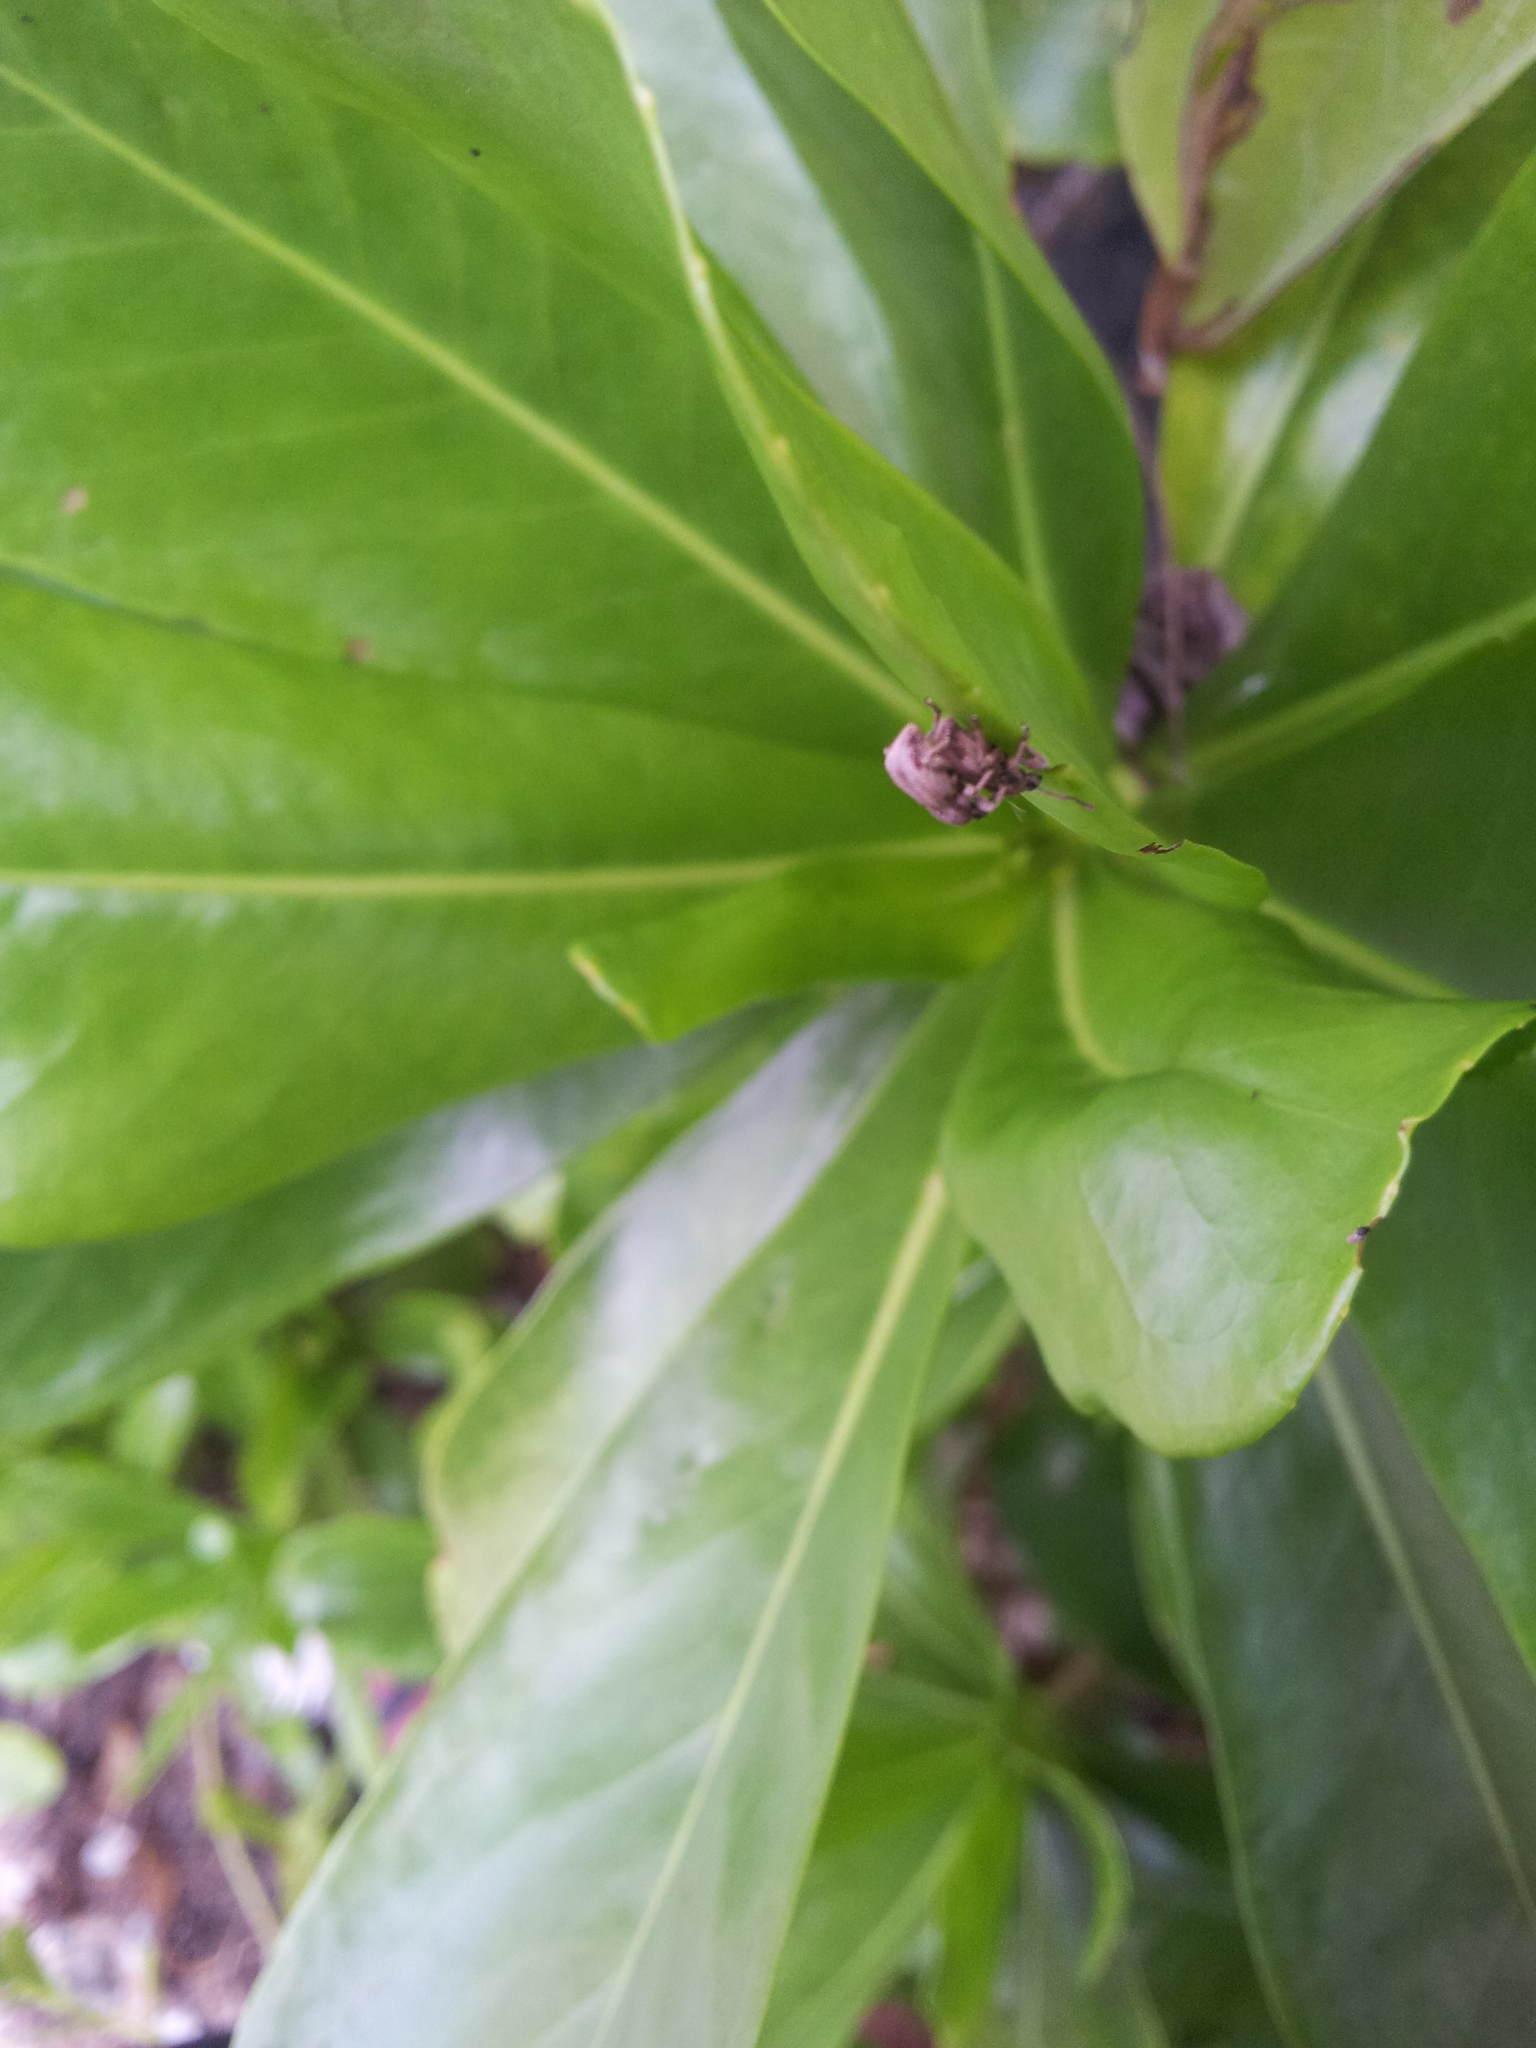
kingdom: Animalia
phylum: Arthropoda
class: Insecta
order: Coleoptera
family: Curculionidae
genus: Platysimus
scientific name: Platysimus insularis
